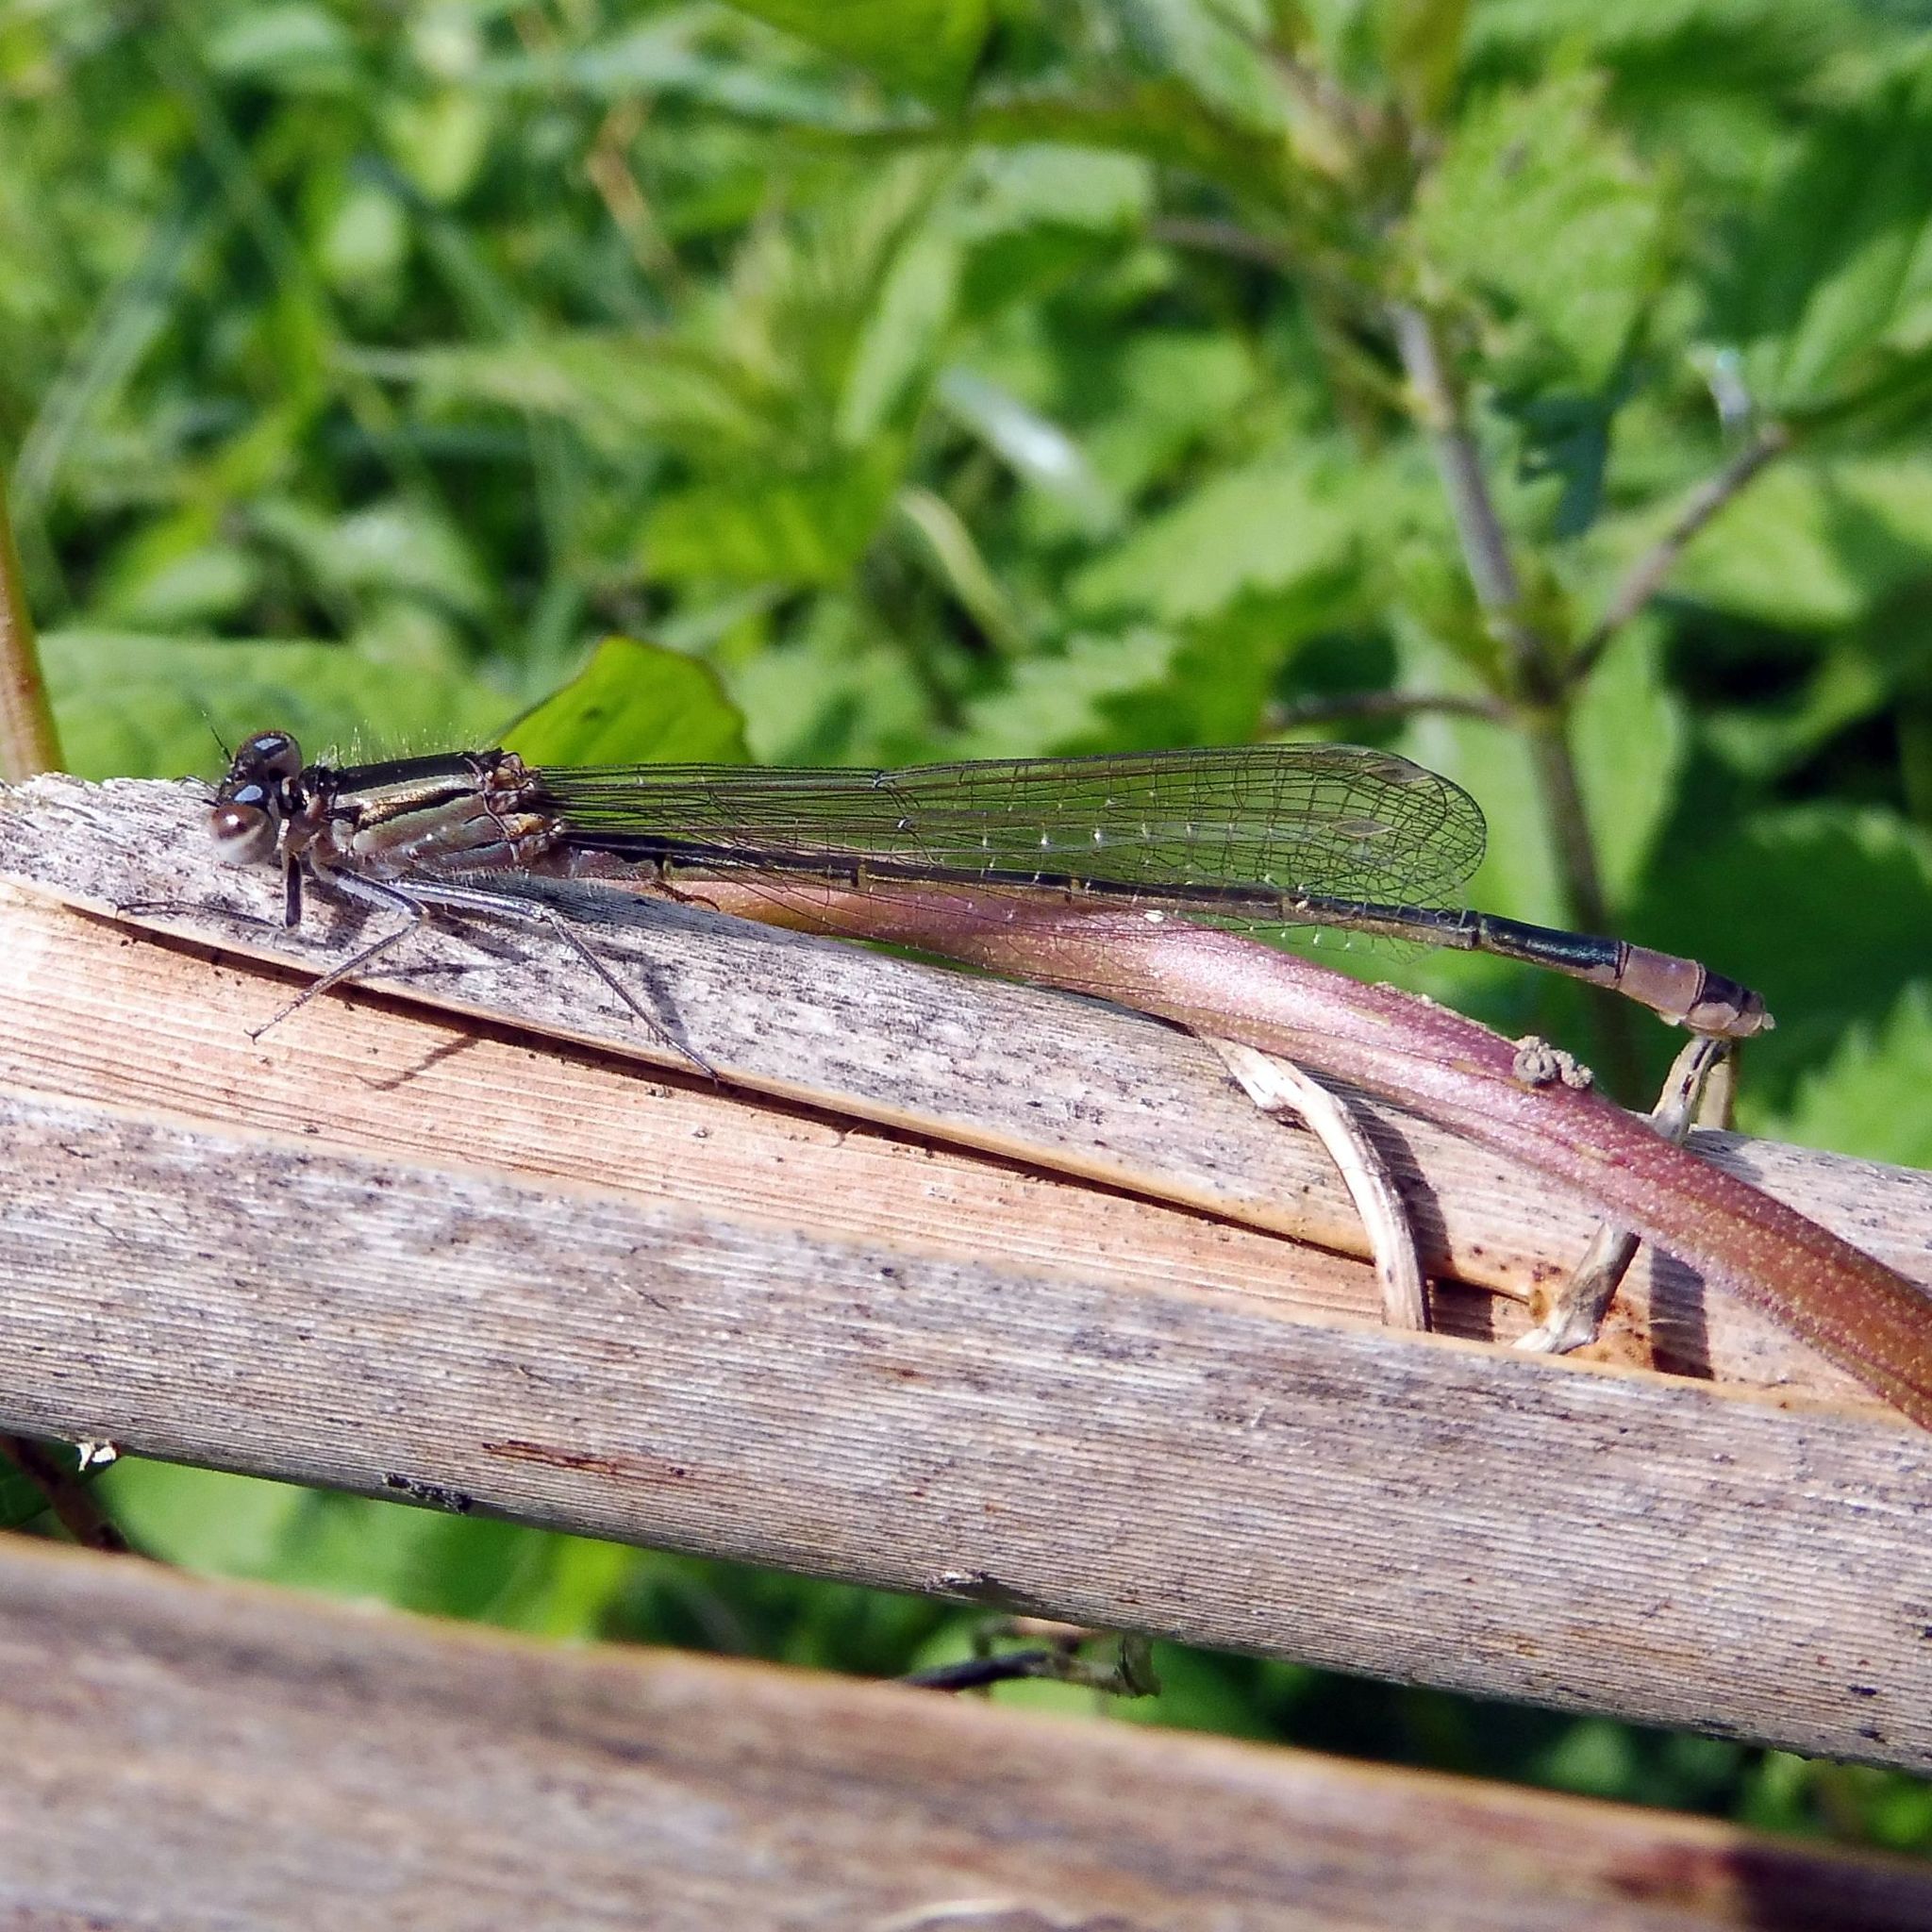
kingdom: Animalia
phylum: Arthropoda
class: Insecta
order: Odonata
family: Coenagrionidae
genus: Ischnura
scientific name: Ischnura elegans
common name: Blue-tailed damselfly
